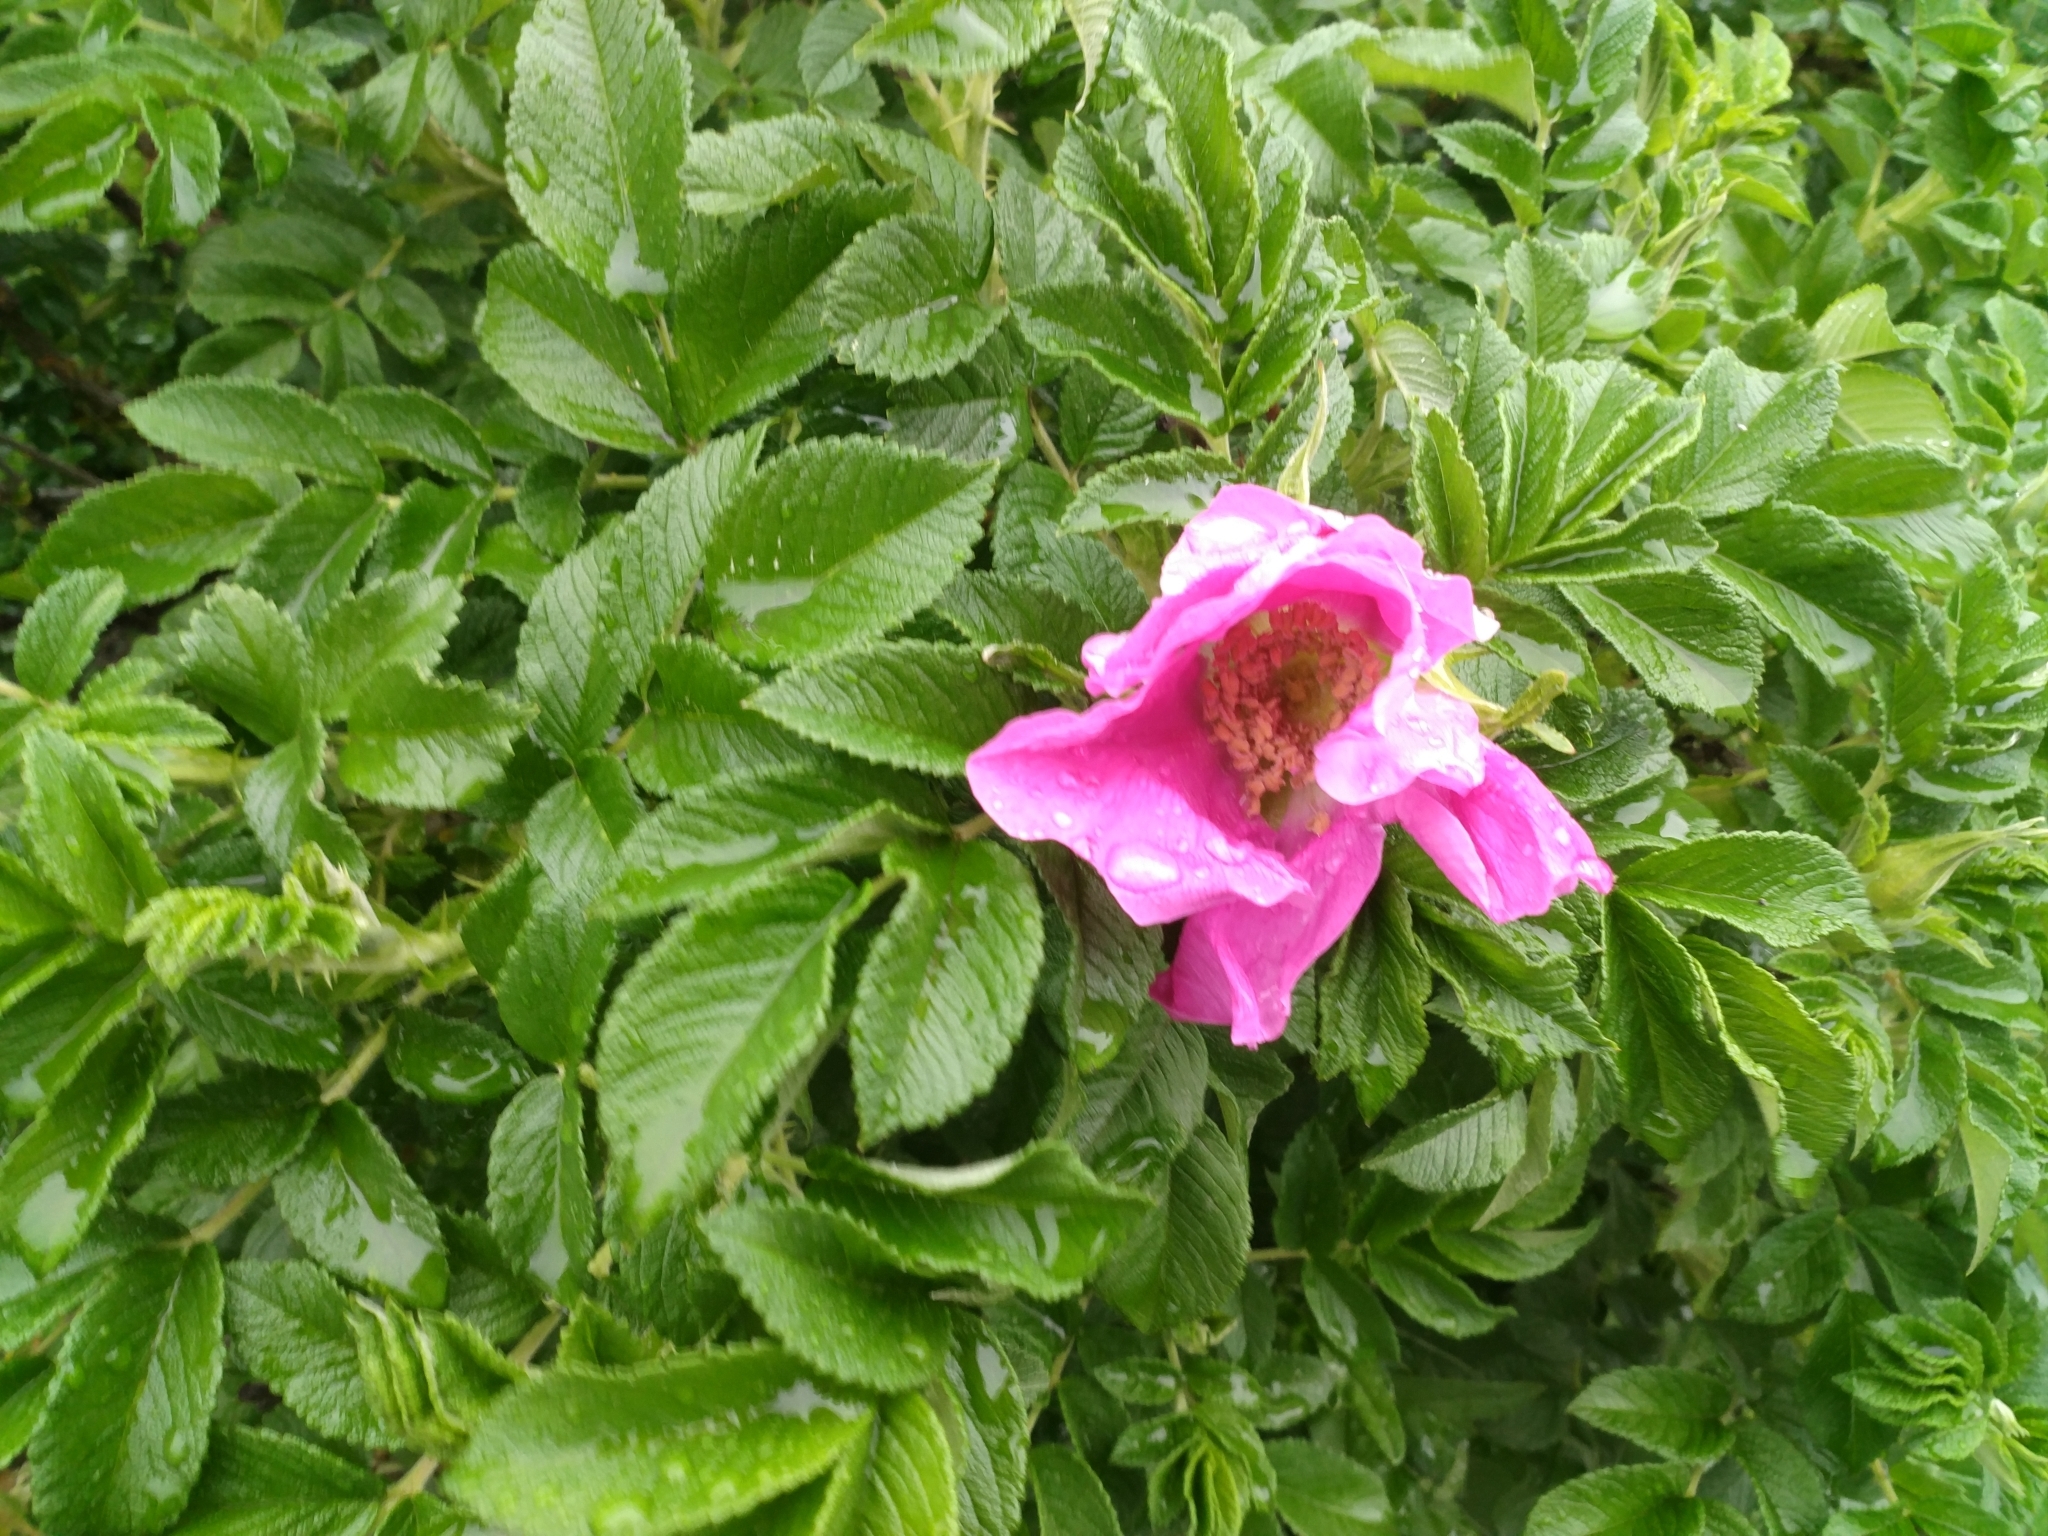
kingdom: Plantae
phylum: Tracheophyta
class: Magnoliopsida
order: Rosales
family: Rosaceae
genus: Rosa
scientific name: Rosa rugosa
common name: Japanese rose
